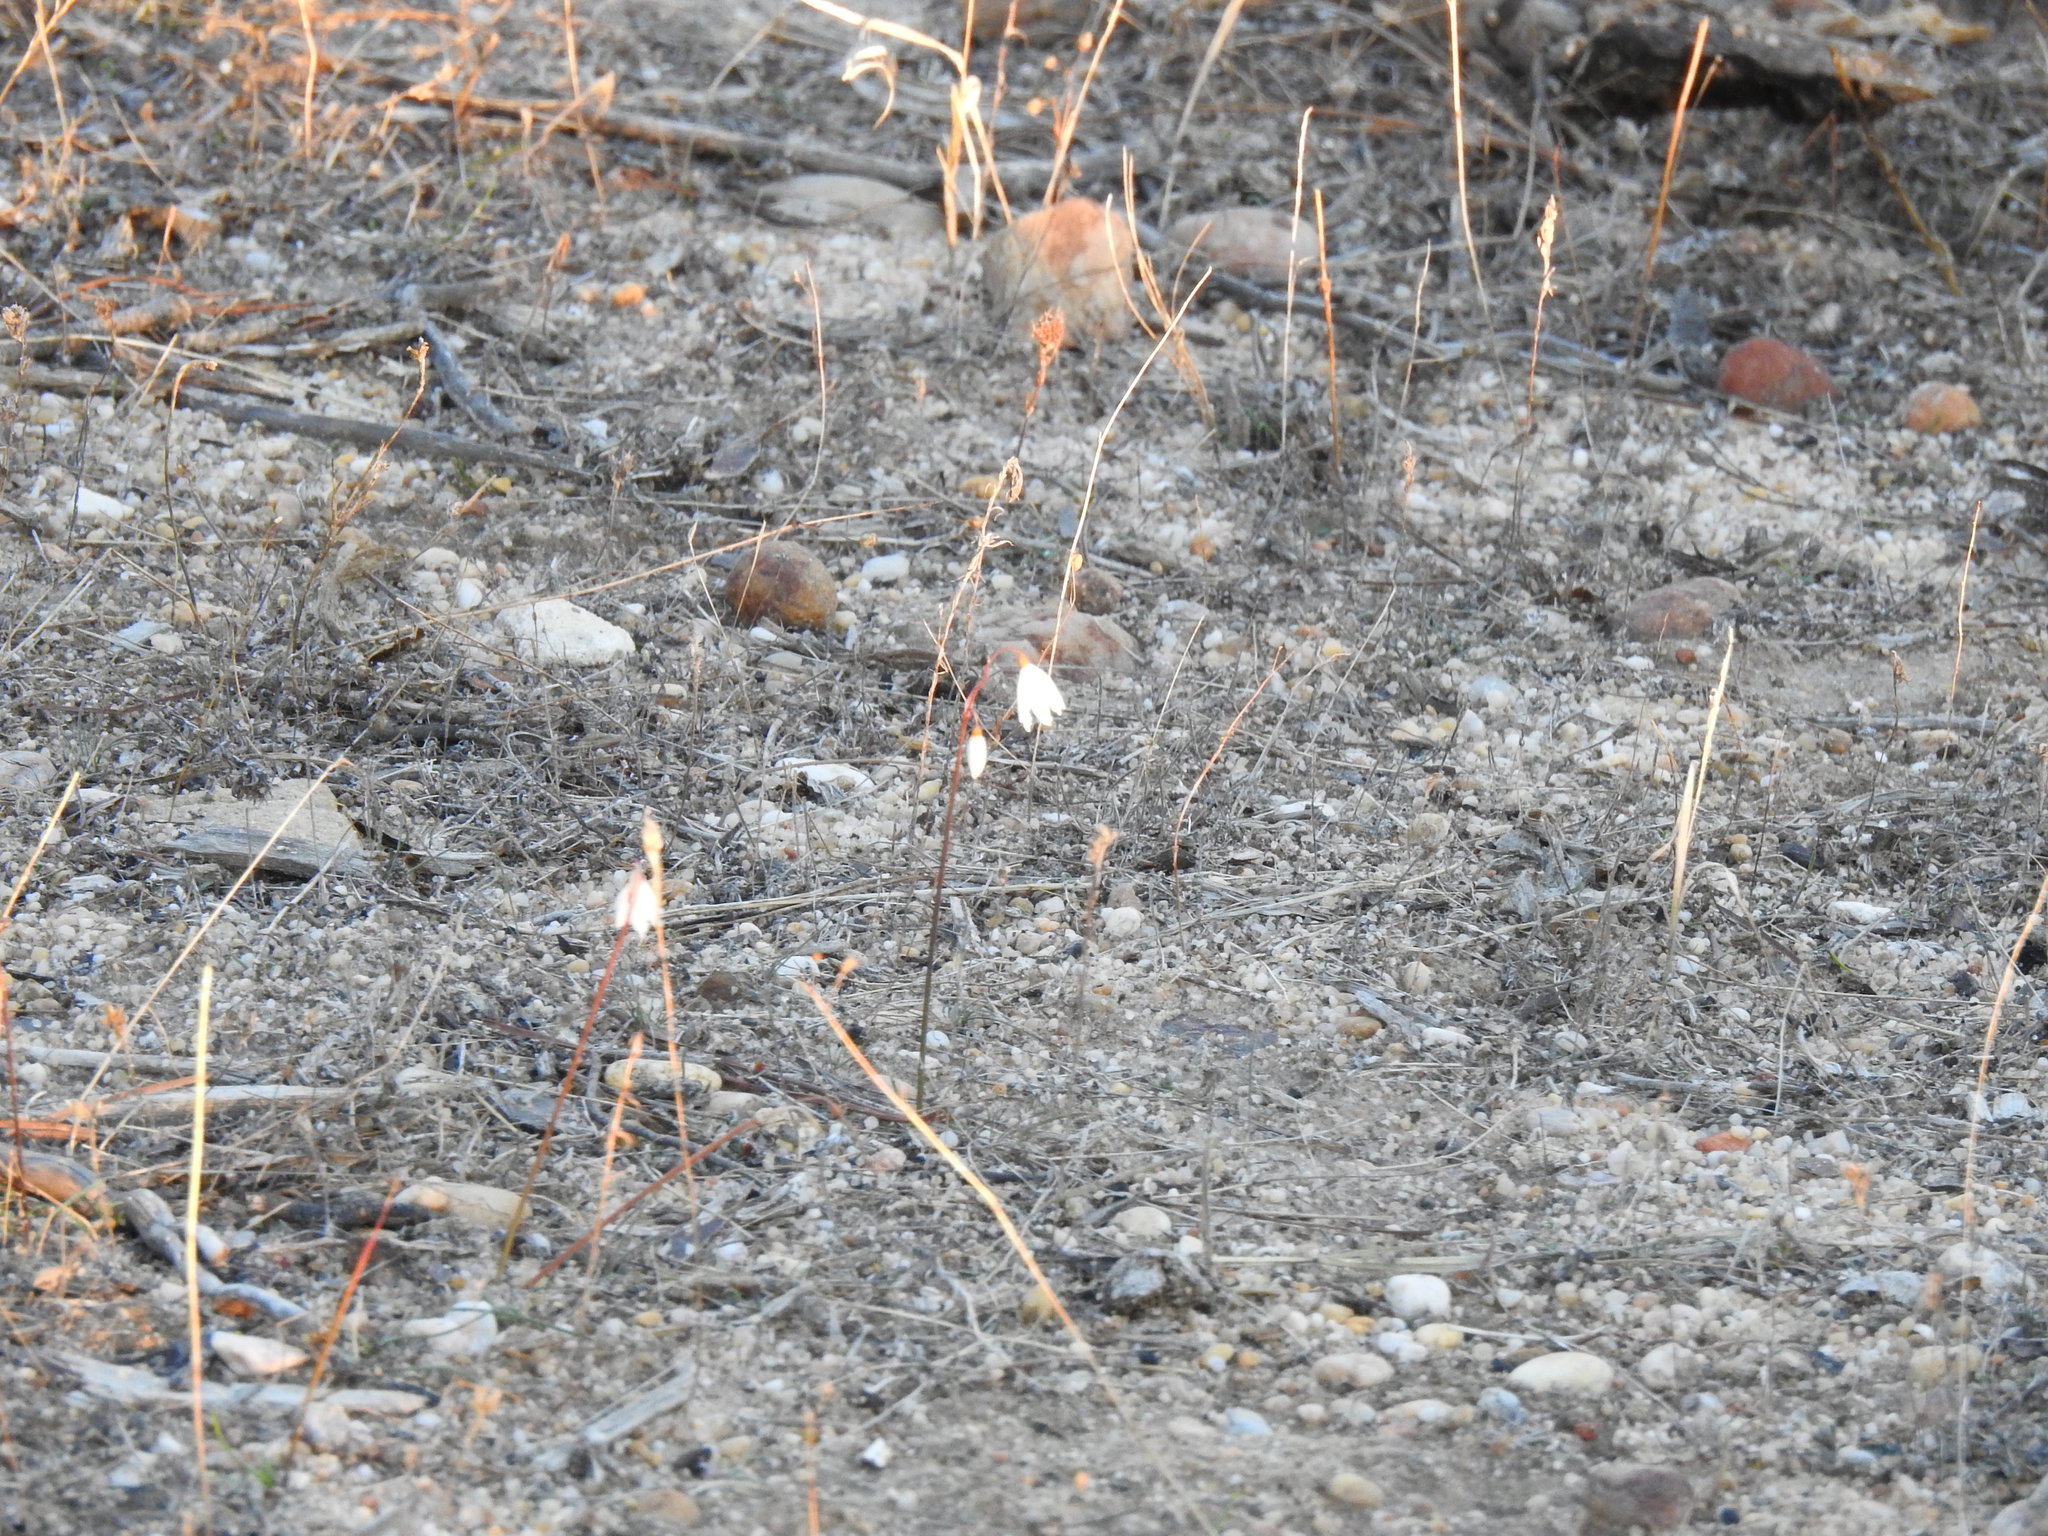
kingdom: Plantae
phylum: Tracheophyta
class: Liliopsida
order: Asparagales
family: Amaryllidaceae
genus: Acis
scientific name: Acis autumnalis
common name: Autumn snowflake
